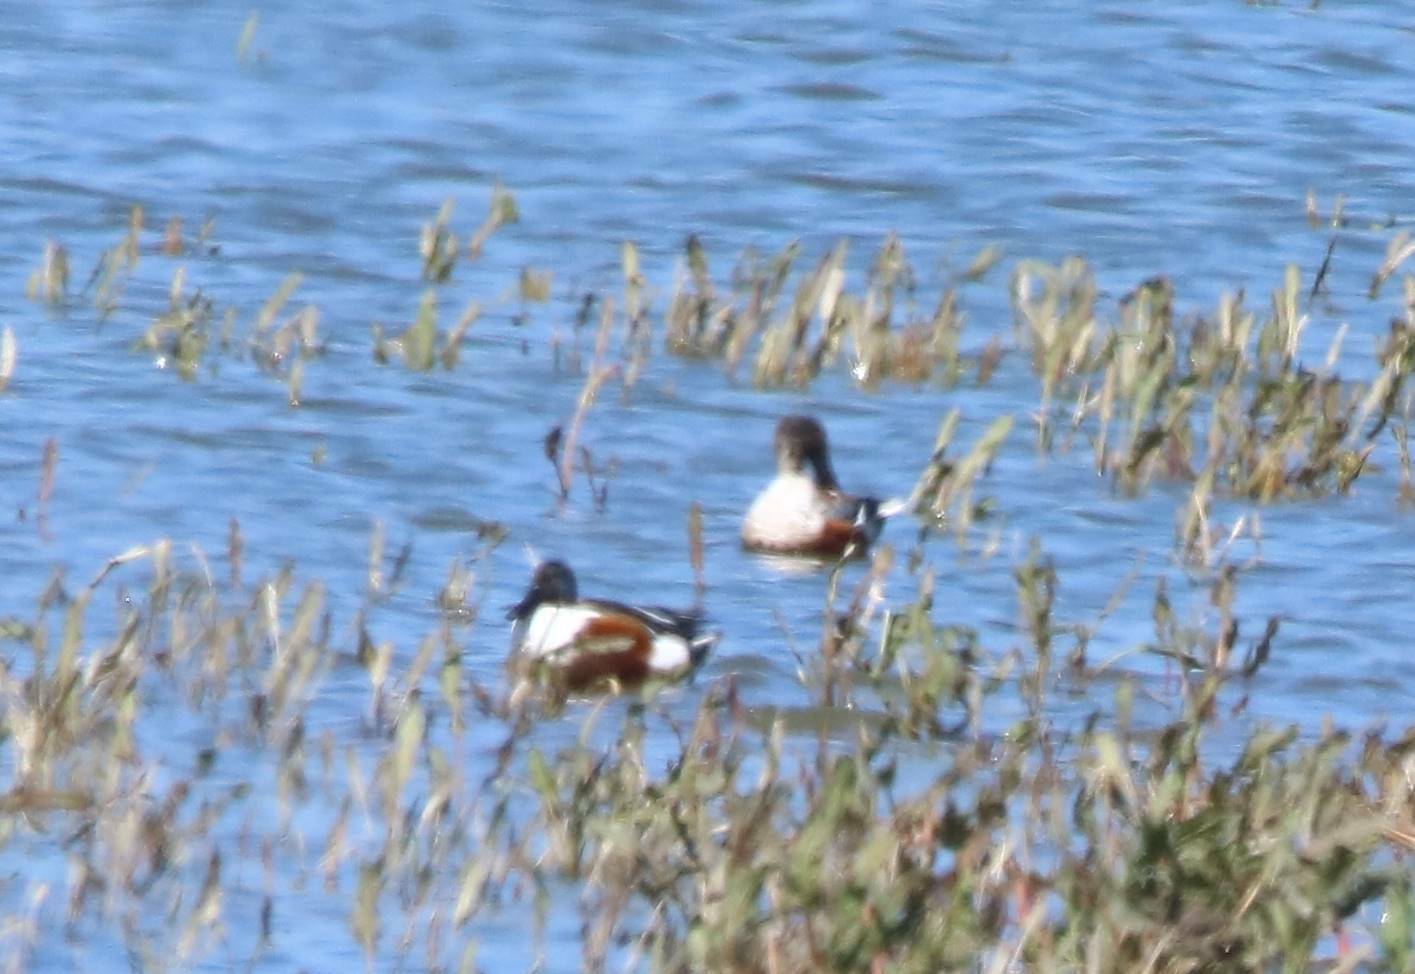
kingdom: Animalia
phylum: Chordata
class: Aves
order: Anseriformes
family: Anatidae
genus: Spatula
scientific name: Spatula clypeata
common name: Northern shoveler
